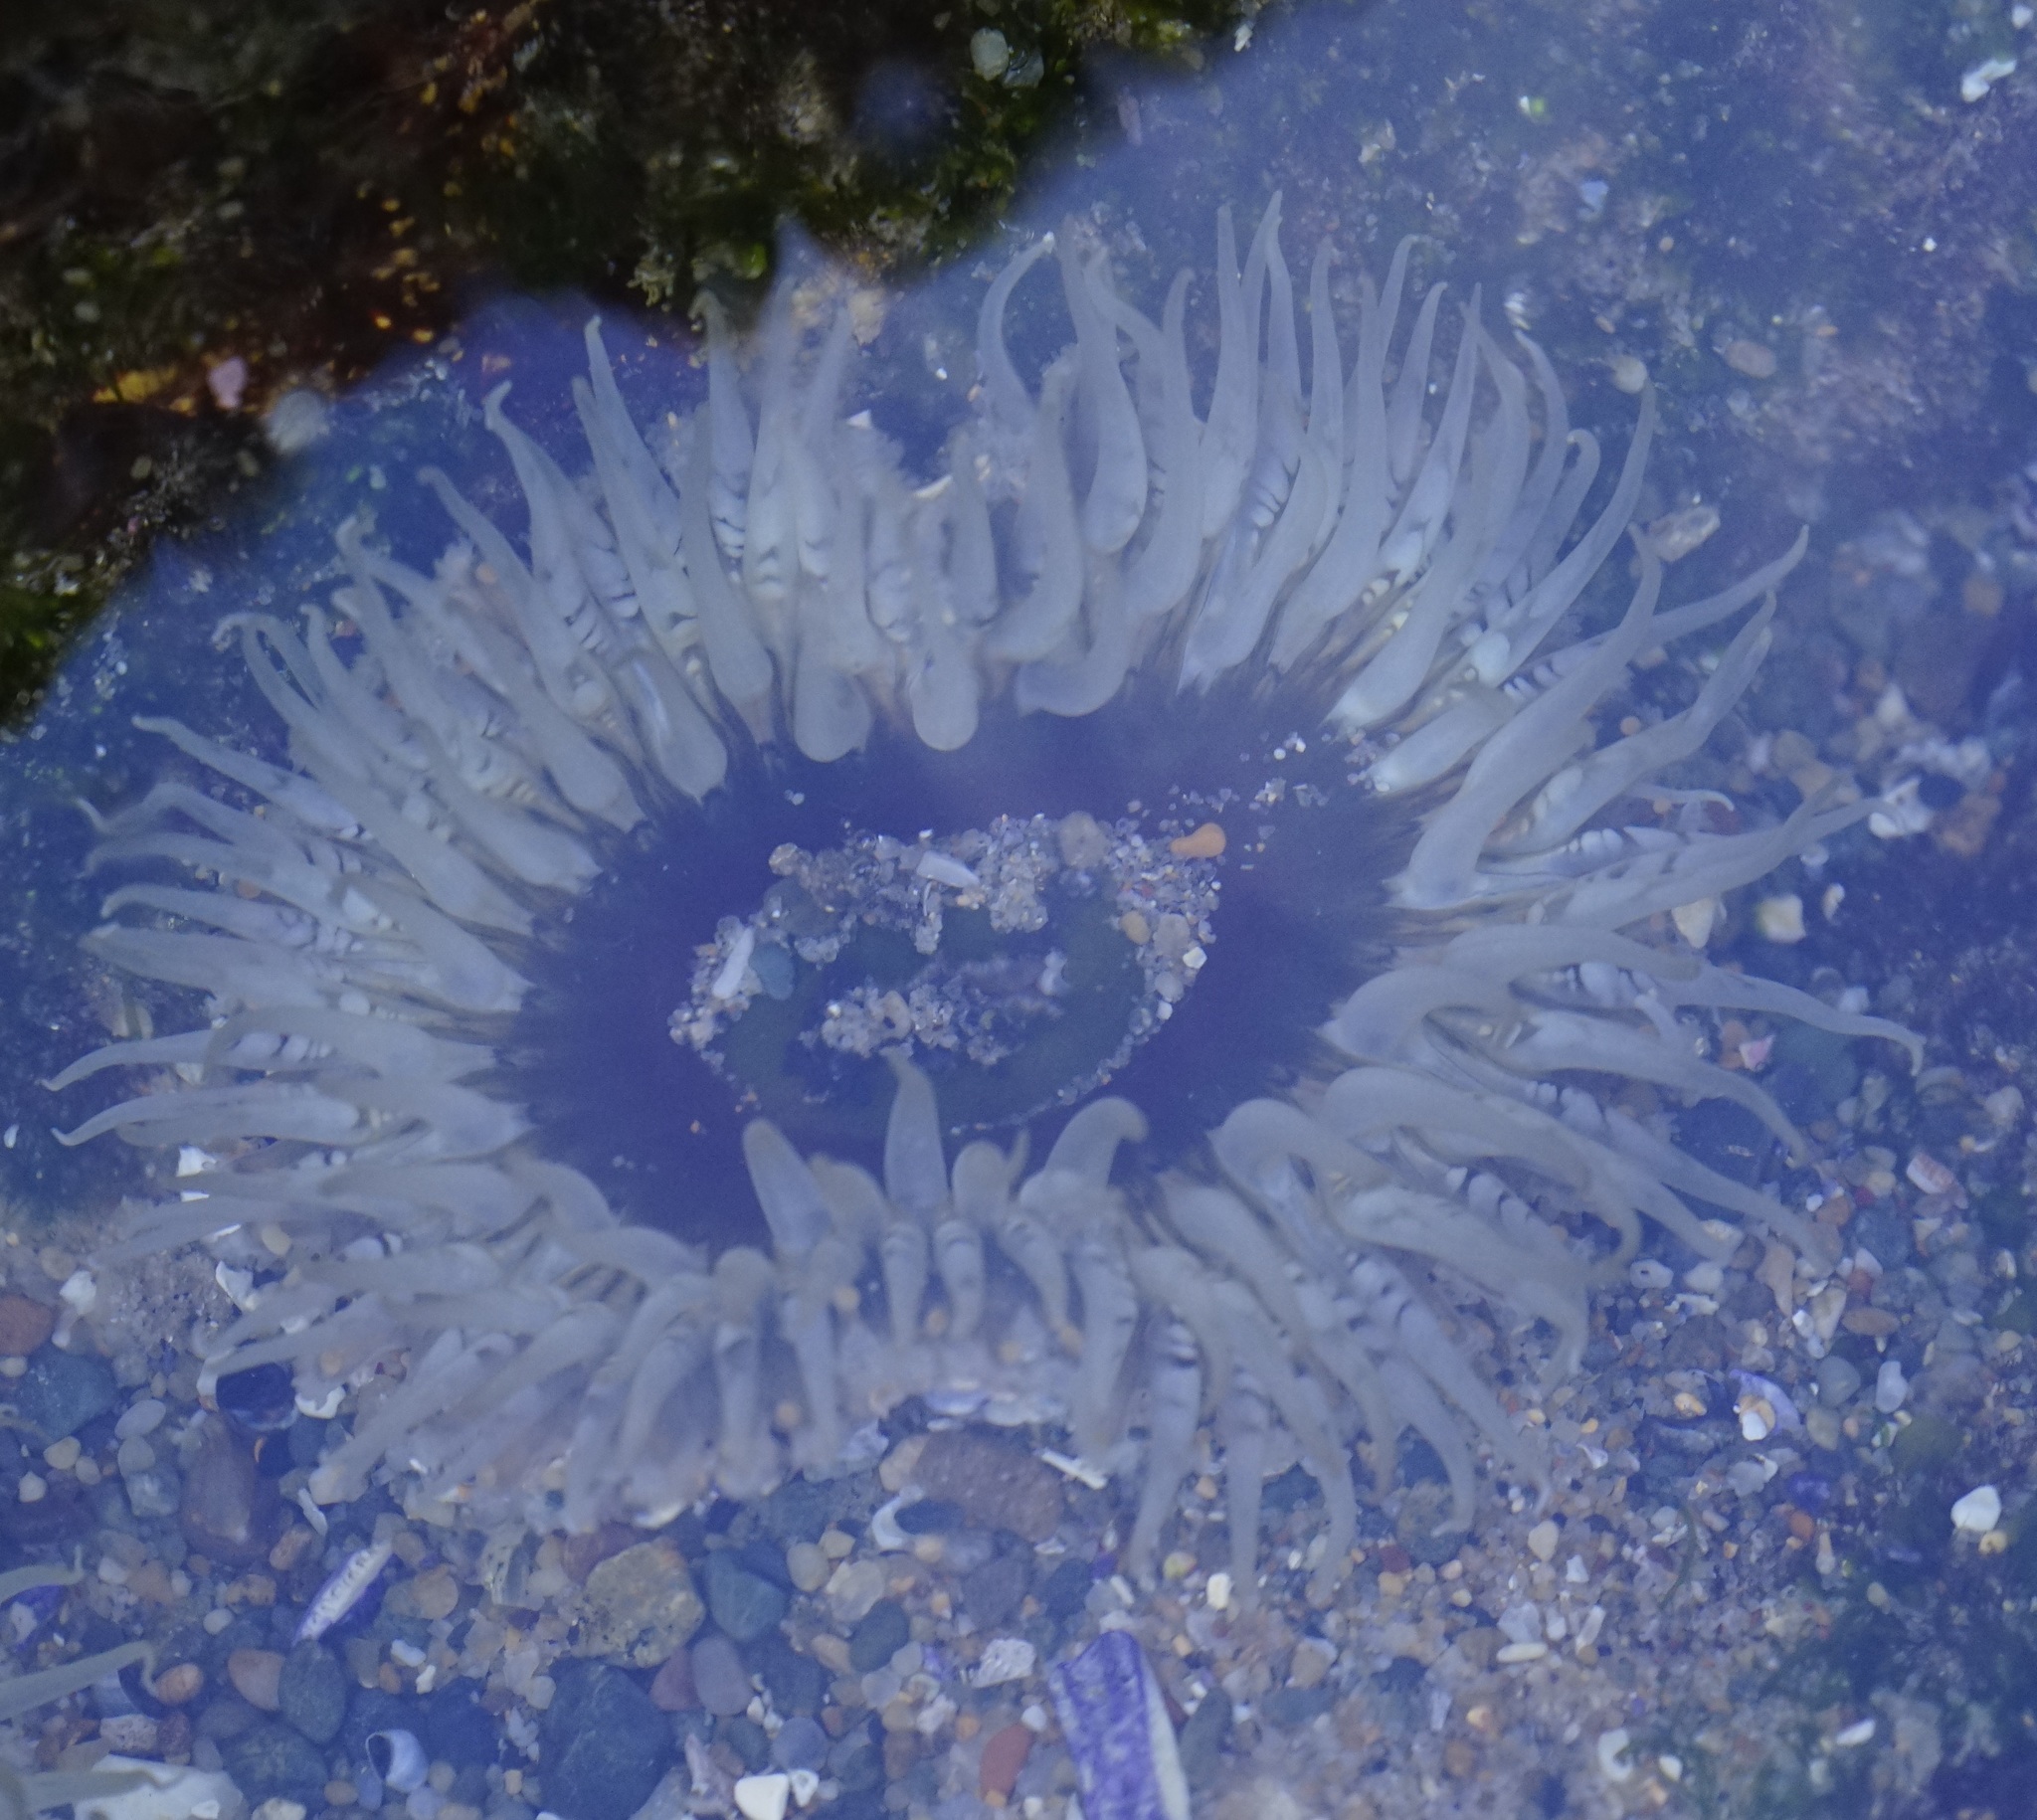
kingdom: Animalia
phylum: Cnidaria
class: Anthozoa
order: Actiniaria
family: Actiniidae
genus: Oulactis
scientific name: Oulactis muscosa
